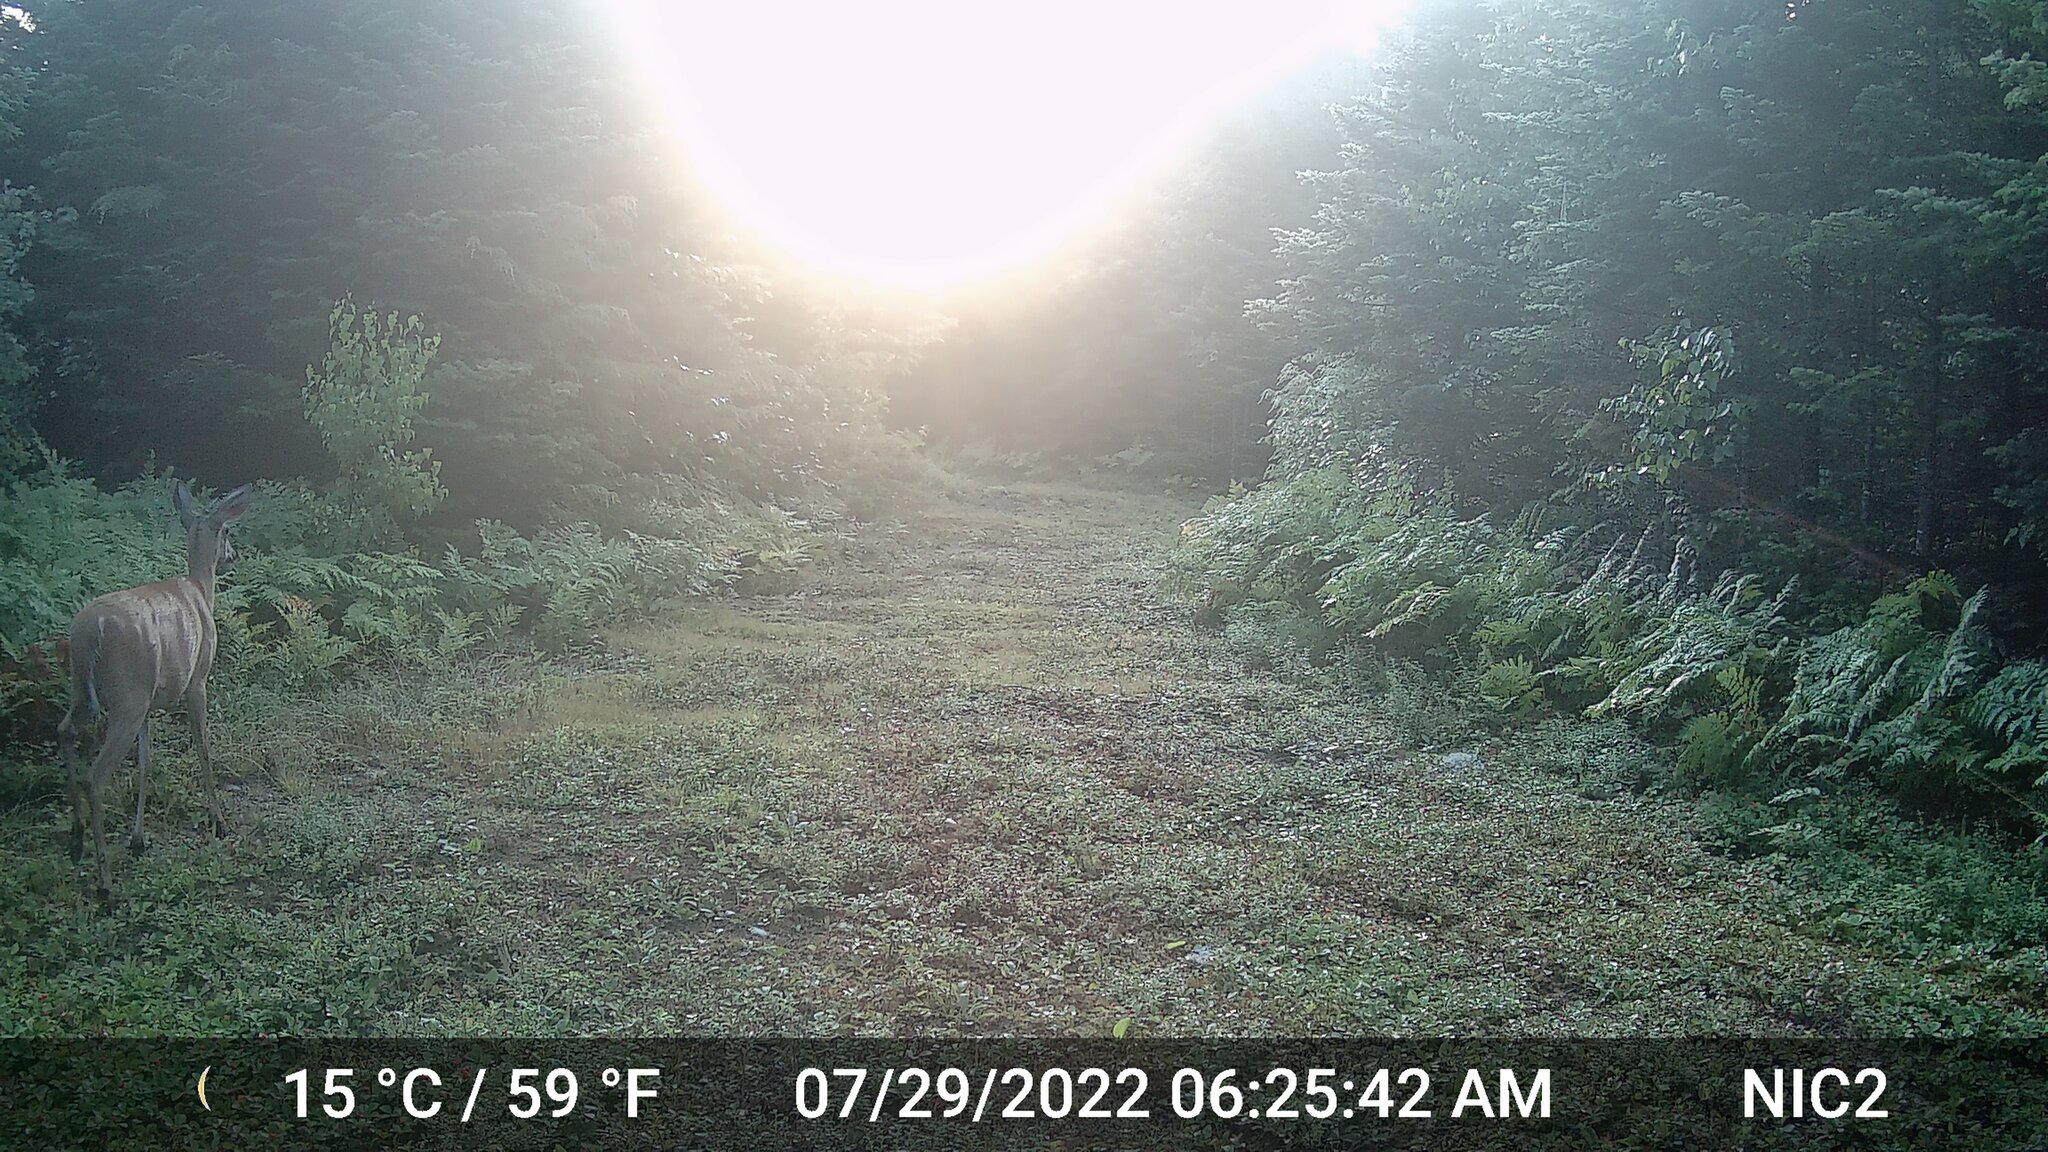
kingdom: Animalia
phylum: Chordata
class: Mammalia
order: Artiodactyla
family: Cervidae
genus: Odocoileus
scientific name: Odocoileus virginianus
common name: White-tailed deer
